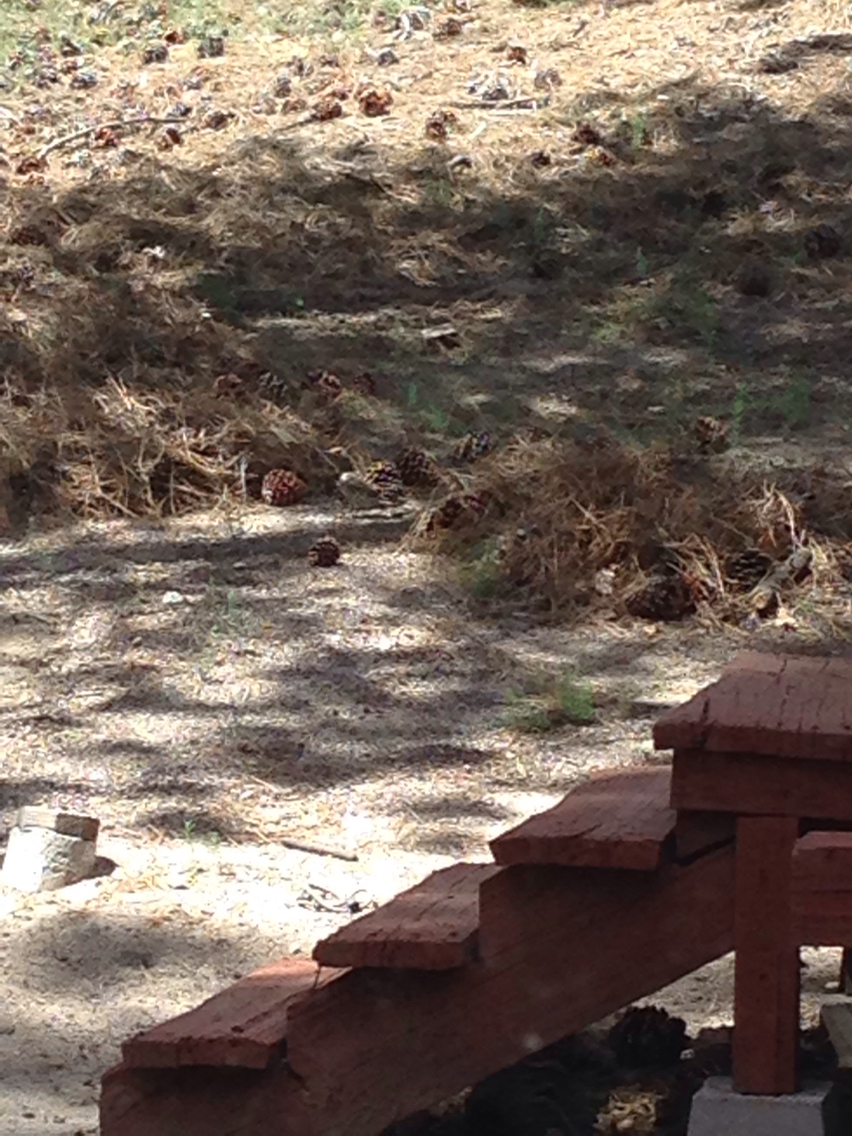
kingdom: Animalia
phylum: Chordata
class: Aves
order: Piciformes
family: Picidae
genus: Colaptes
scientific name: Colaptes auratus
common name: Northern flicker
